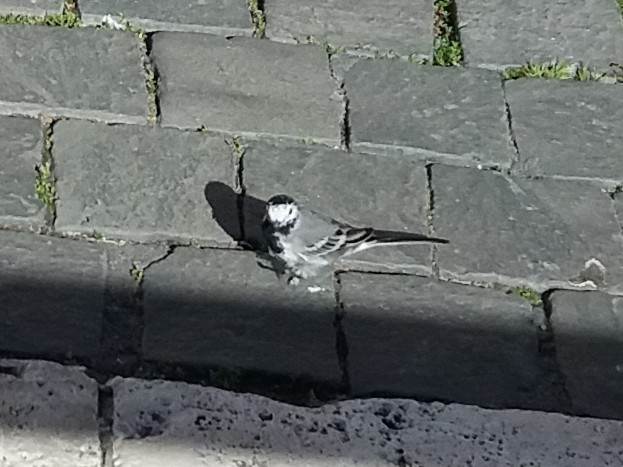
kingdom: Animalia
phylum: Chordata
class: Aves
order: Passeriformes
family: Motacillidae
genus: Motacilla
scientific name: Motacilla alba
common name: White wagtail
